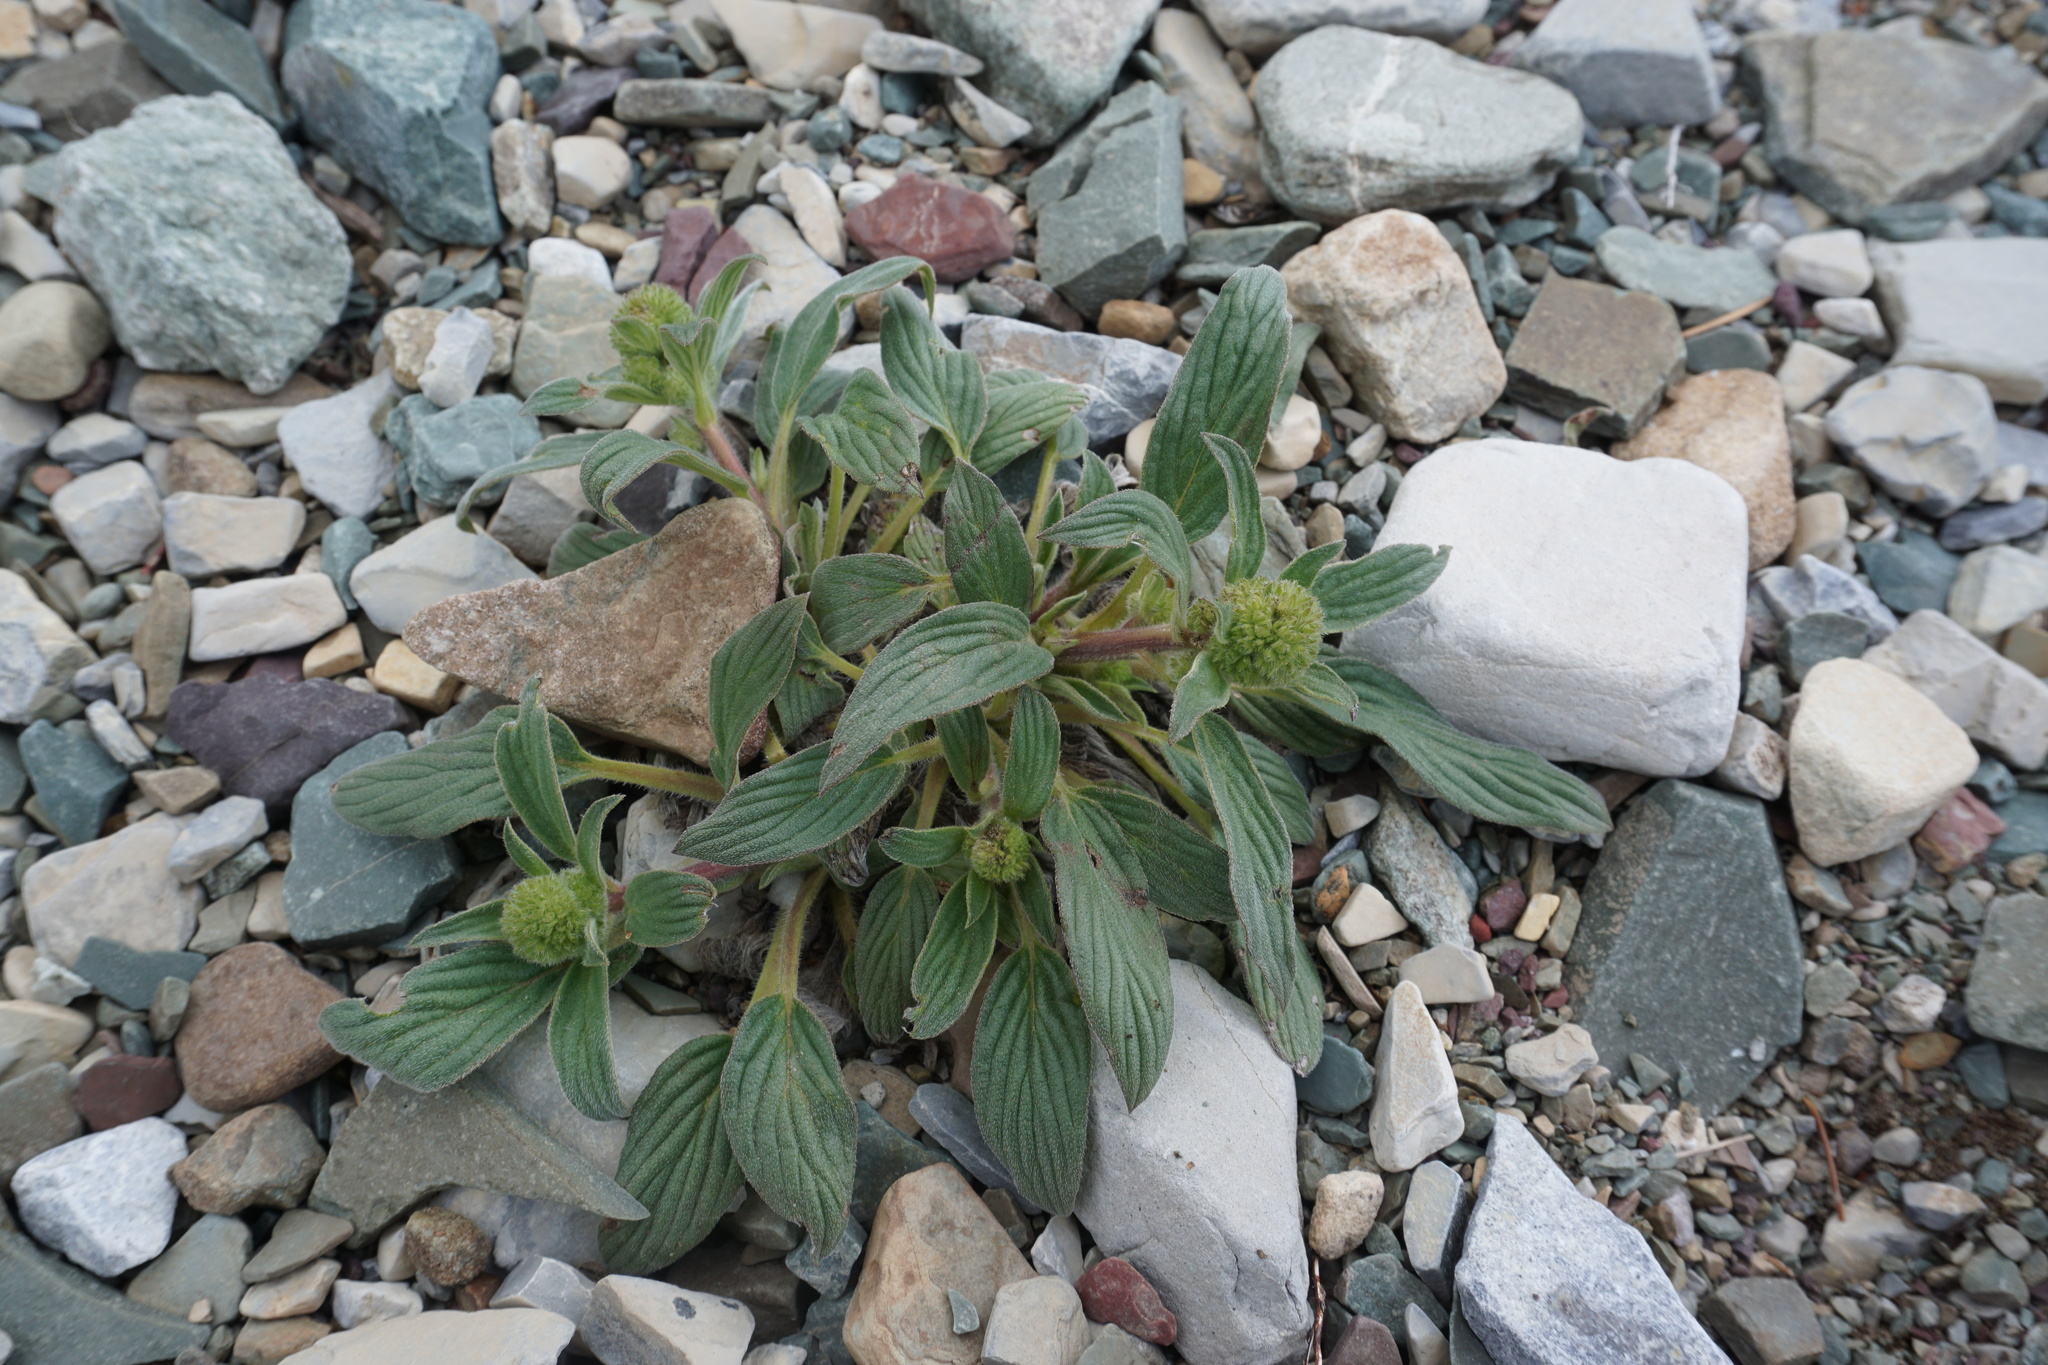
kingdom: Plantae
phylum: Tracheophyta
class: Magnoliopsida
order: Boraginales
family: Hydrophyllaceae
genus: Phacelia
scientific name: Phacelia hastata
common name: Silver-leaved phacelia
